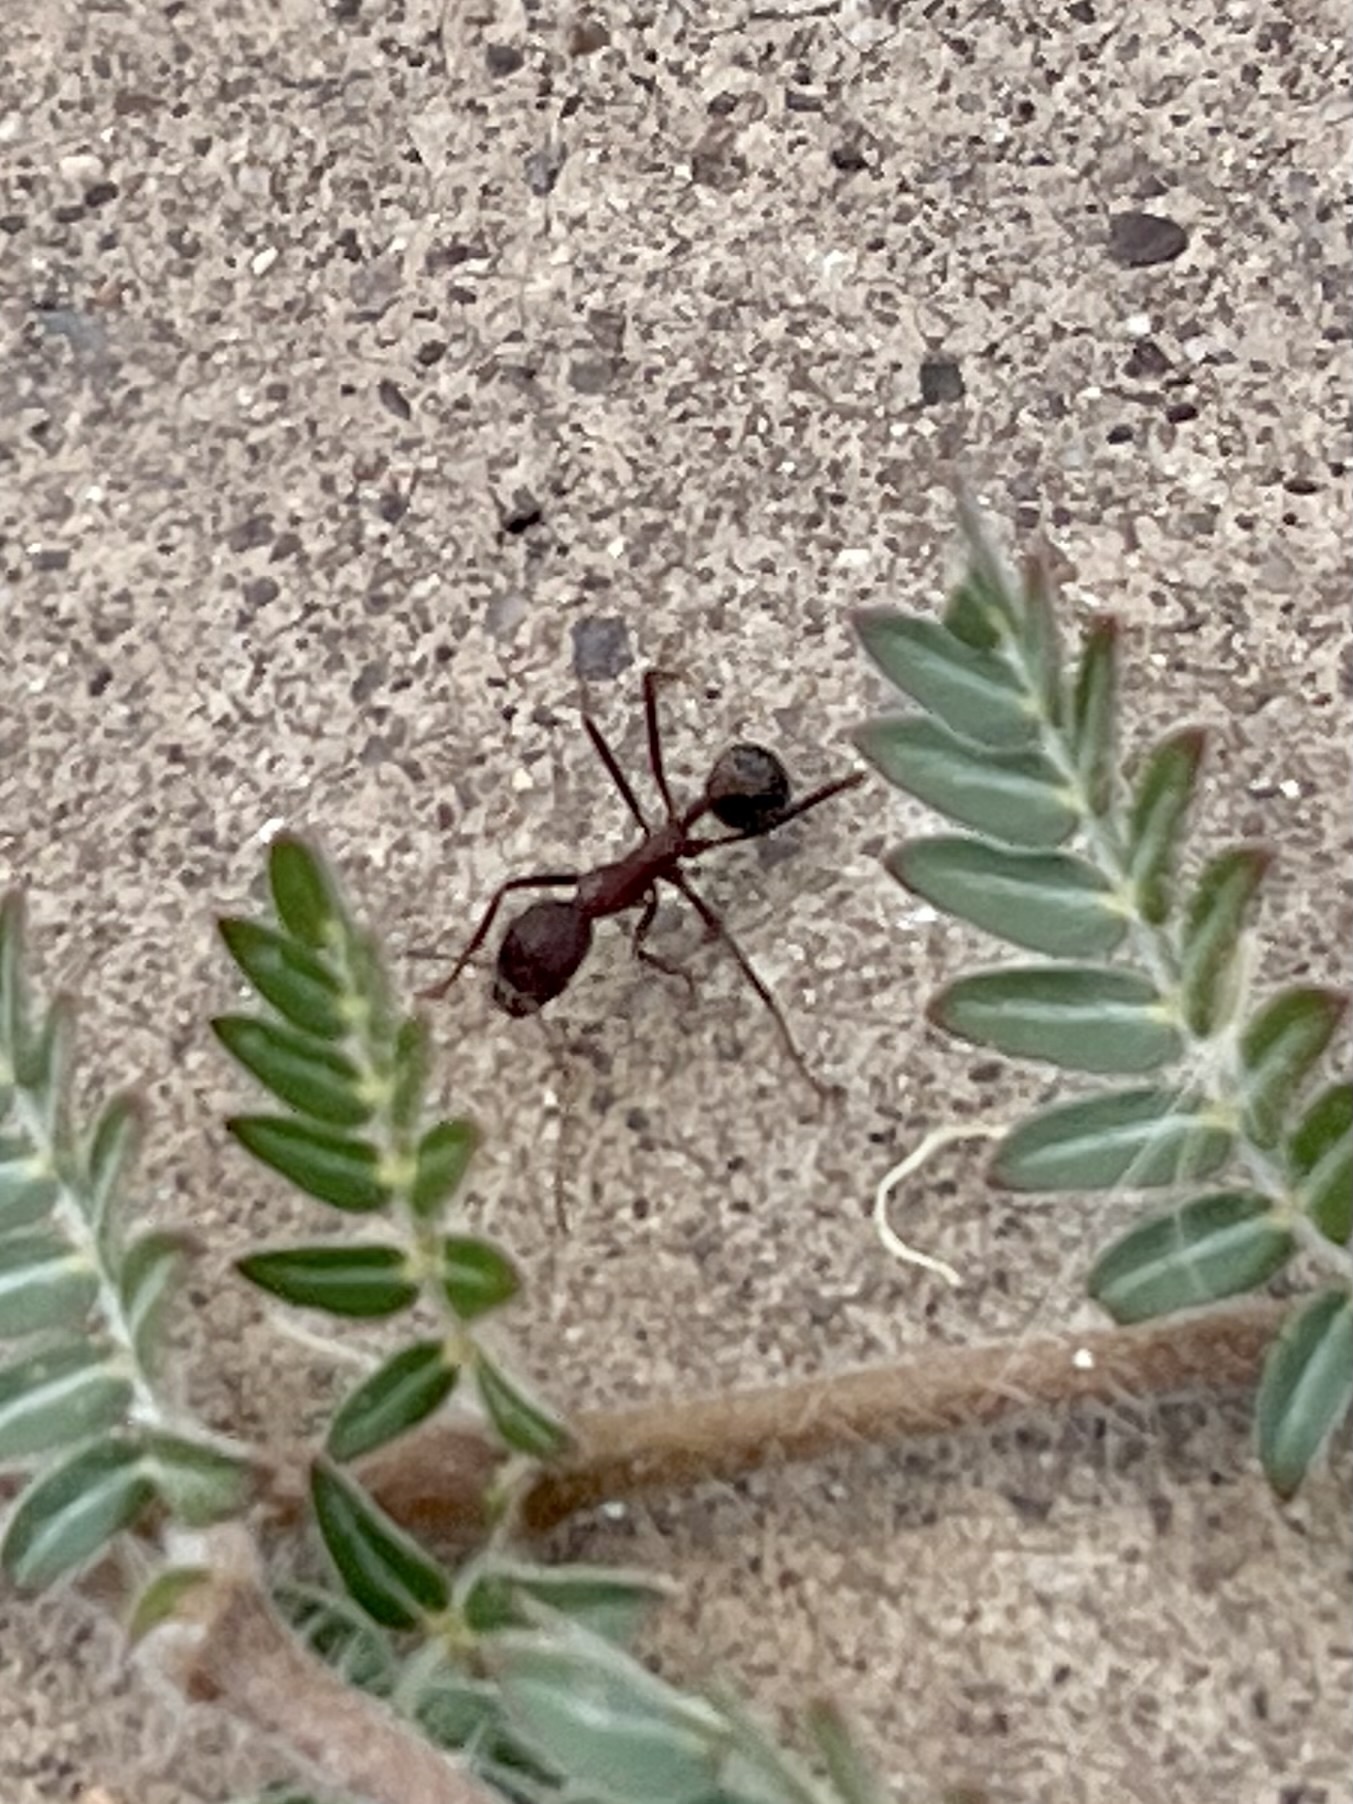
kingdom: Animalia
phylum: Arthropoda
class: Insecta
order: Hymenoptera
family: Formicidae
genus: Novomessor
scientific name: Novomessor albisetosa
